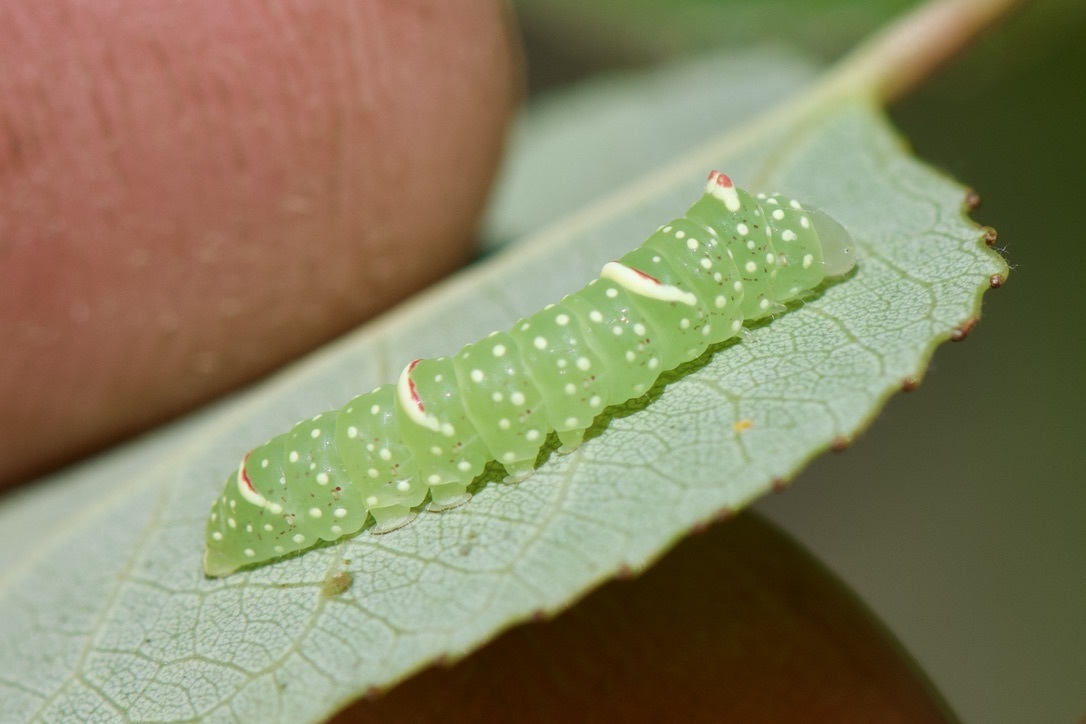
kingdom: Animalia
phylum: Arthropoda
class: Insecta
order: Lepidoptera
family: Noctuidae
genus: Raphia
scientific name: Raphia frater
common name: Brother
